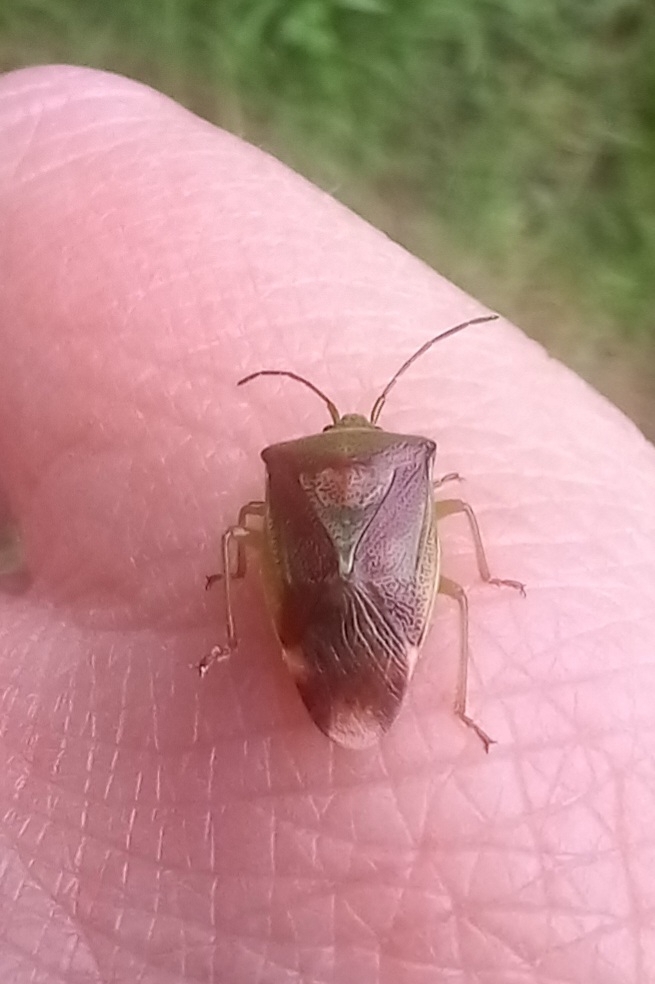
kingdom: Animalia
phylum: Arthropoda
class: Insecta
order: Hemiptera
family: Acanthosomatidae
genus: Elasmostethus
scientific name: Elasmostethus interstinctus
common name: Birch shieldbug
